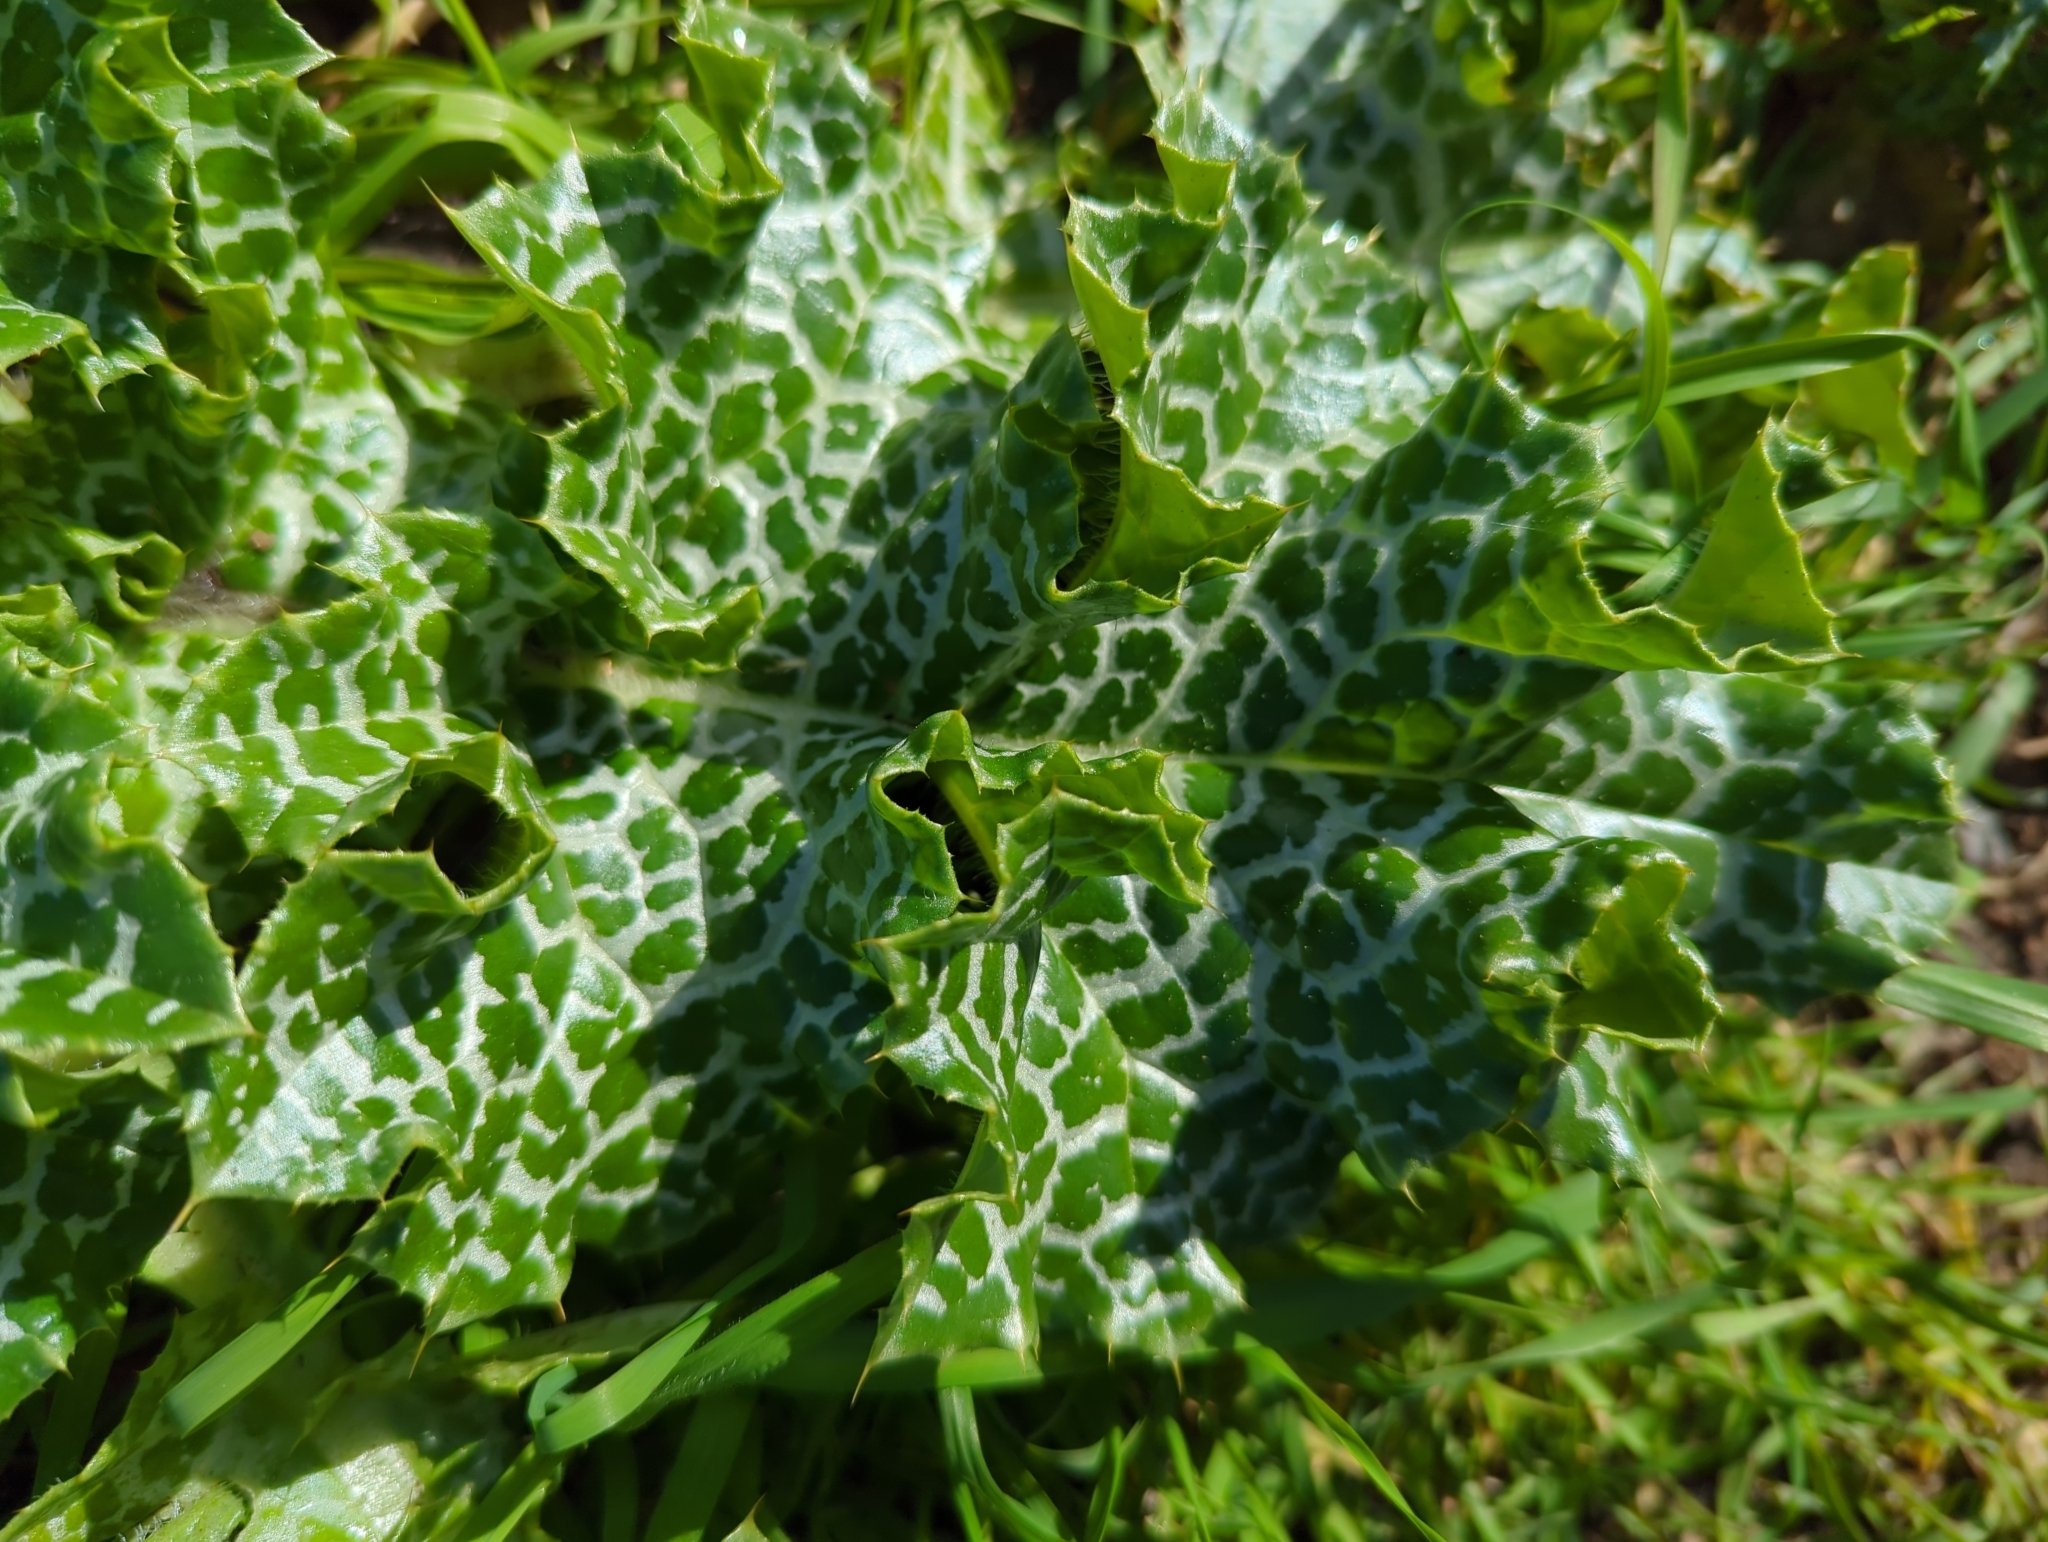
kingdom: Plantae
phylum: Tracheophyta
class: Magnoliopsida
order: Asterales
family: Asteraceae
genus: Silybum
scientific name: Silybum marianum
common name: Milk thistle
